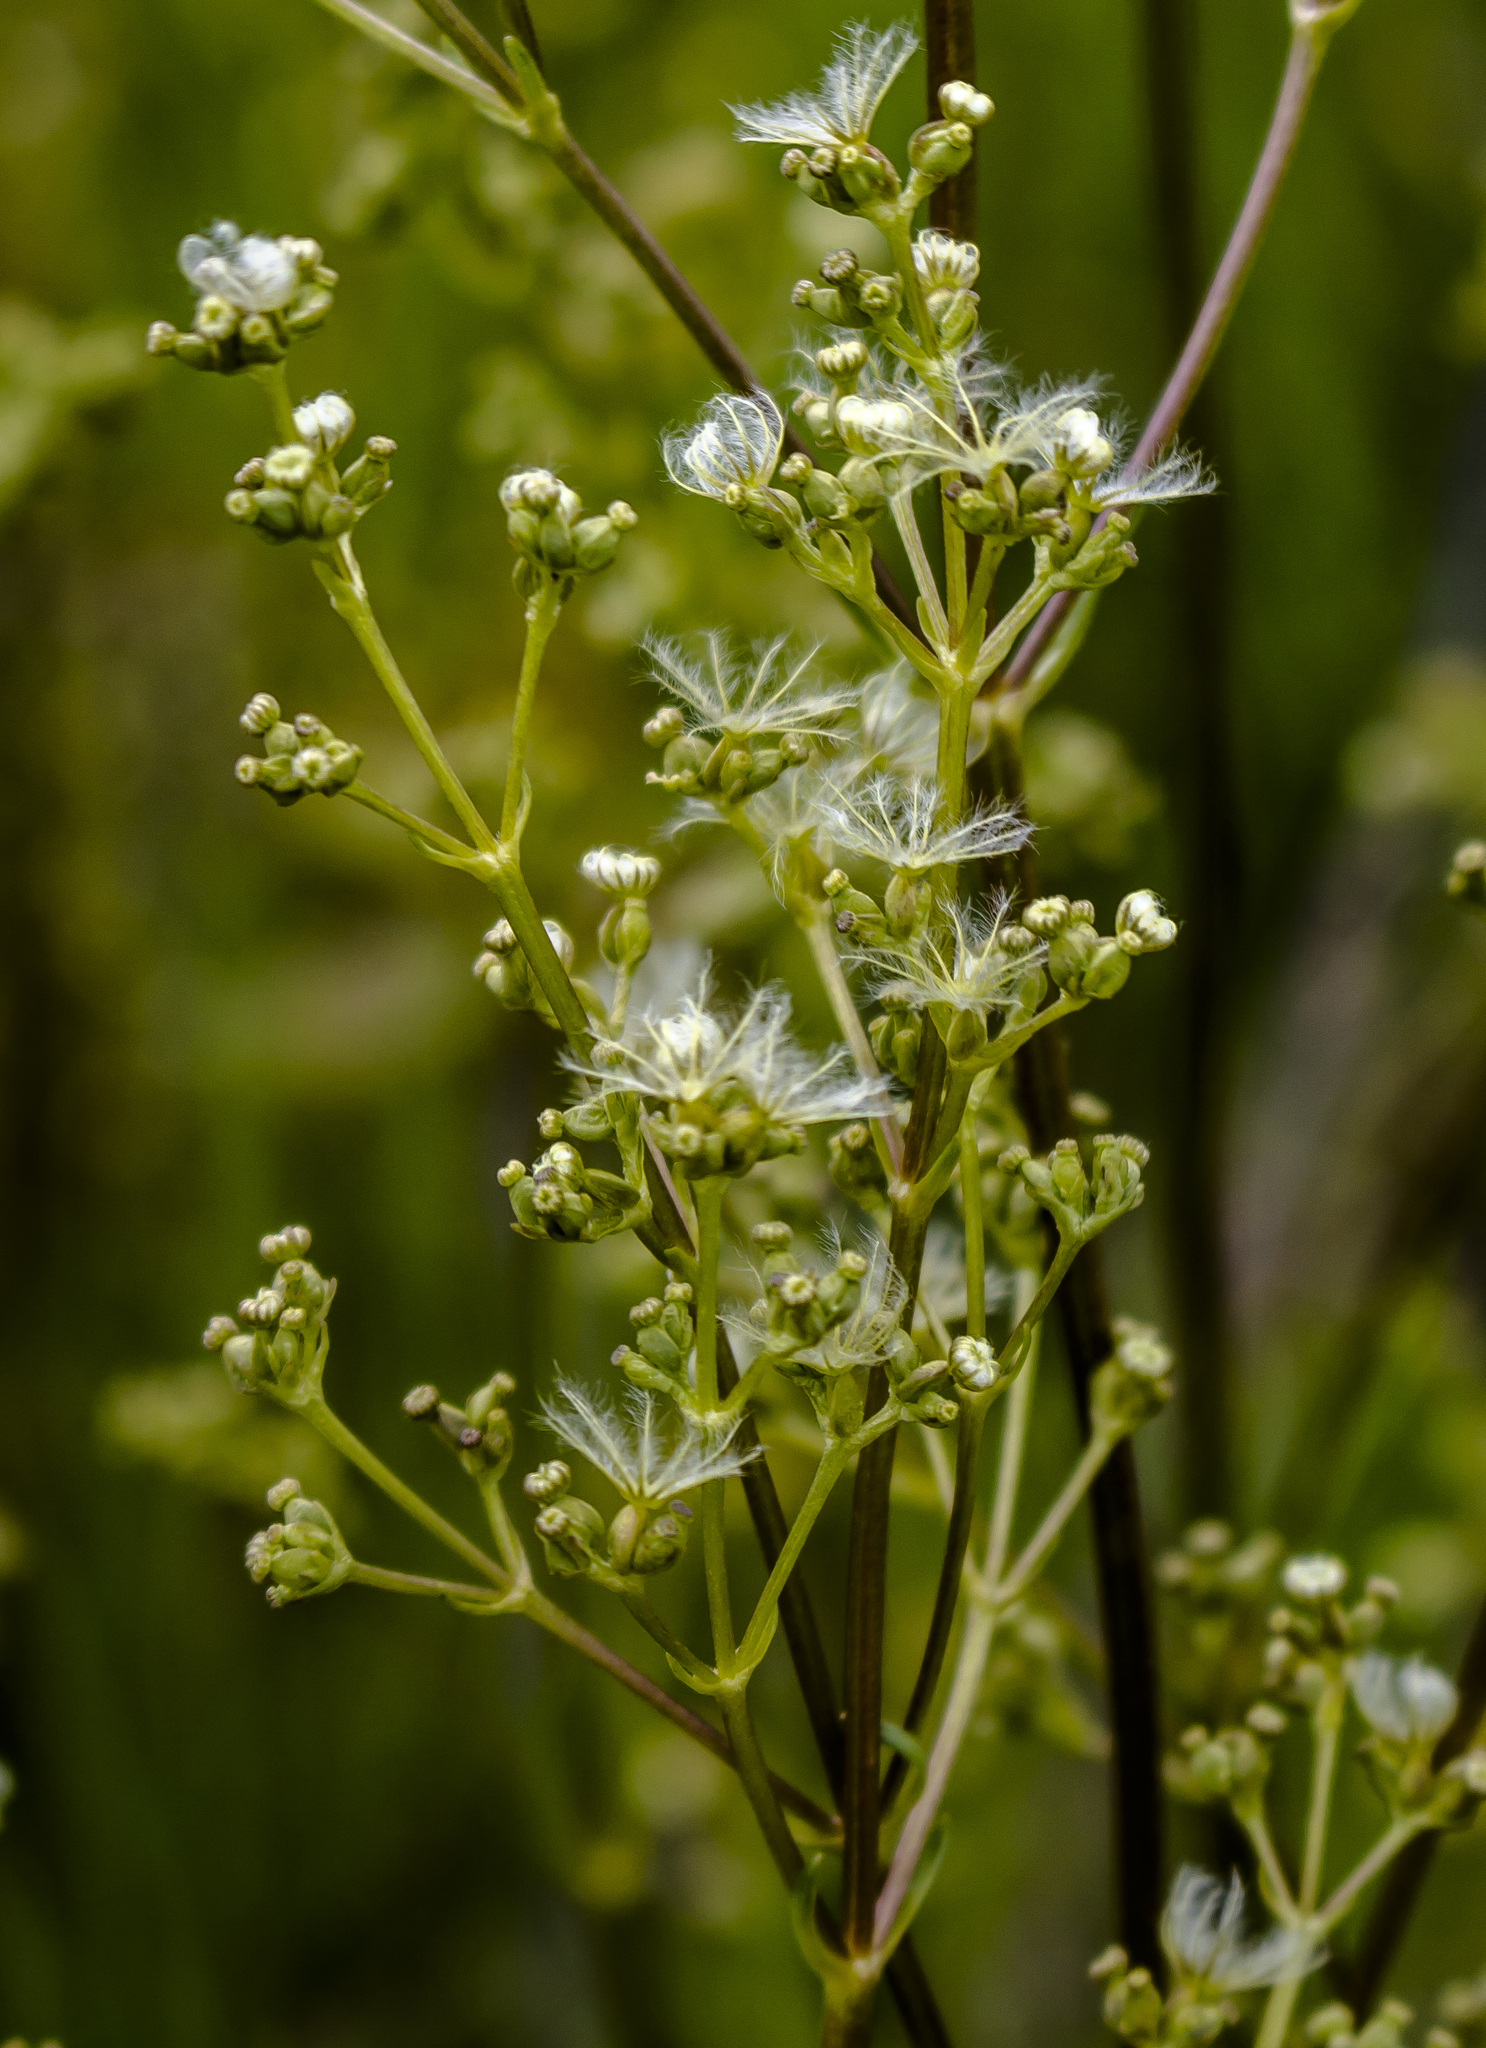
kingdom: Plantae
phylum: Tracheophyta
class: Magnoliopsida
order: Dipsacales
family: Caprifoliaceae
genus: Valeriana
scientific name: Valeriana edulis
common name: Taproot valerian
